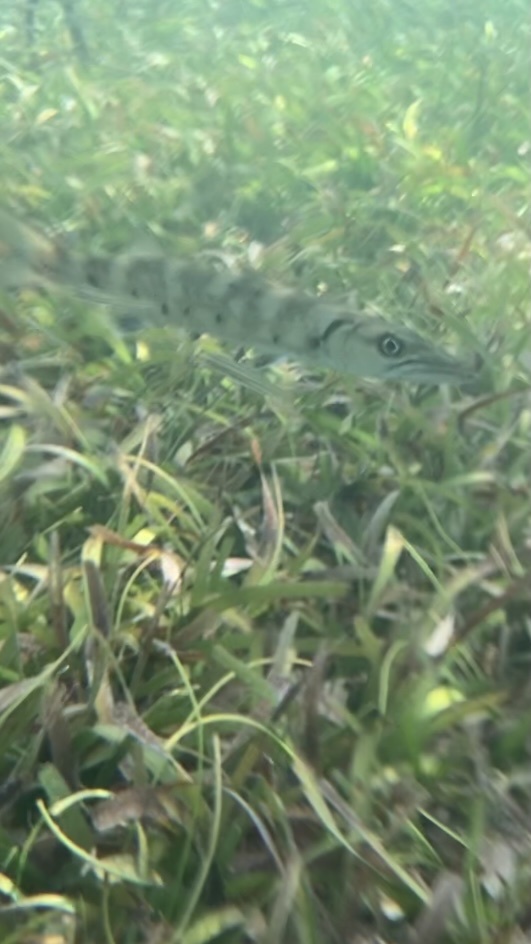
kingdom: Animalia
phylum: Chordata
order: Perciformes
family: Sphyraenidae
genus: Sphyraena
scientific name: Sphyraena barracuda
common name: Great barracuda
